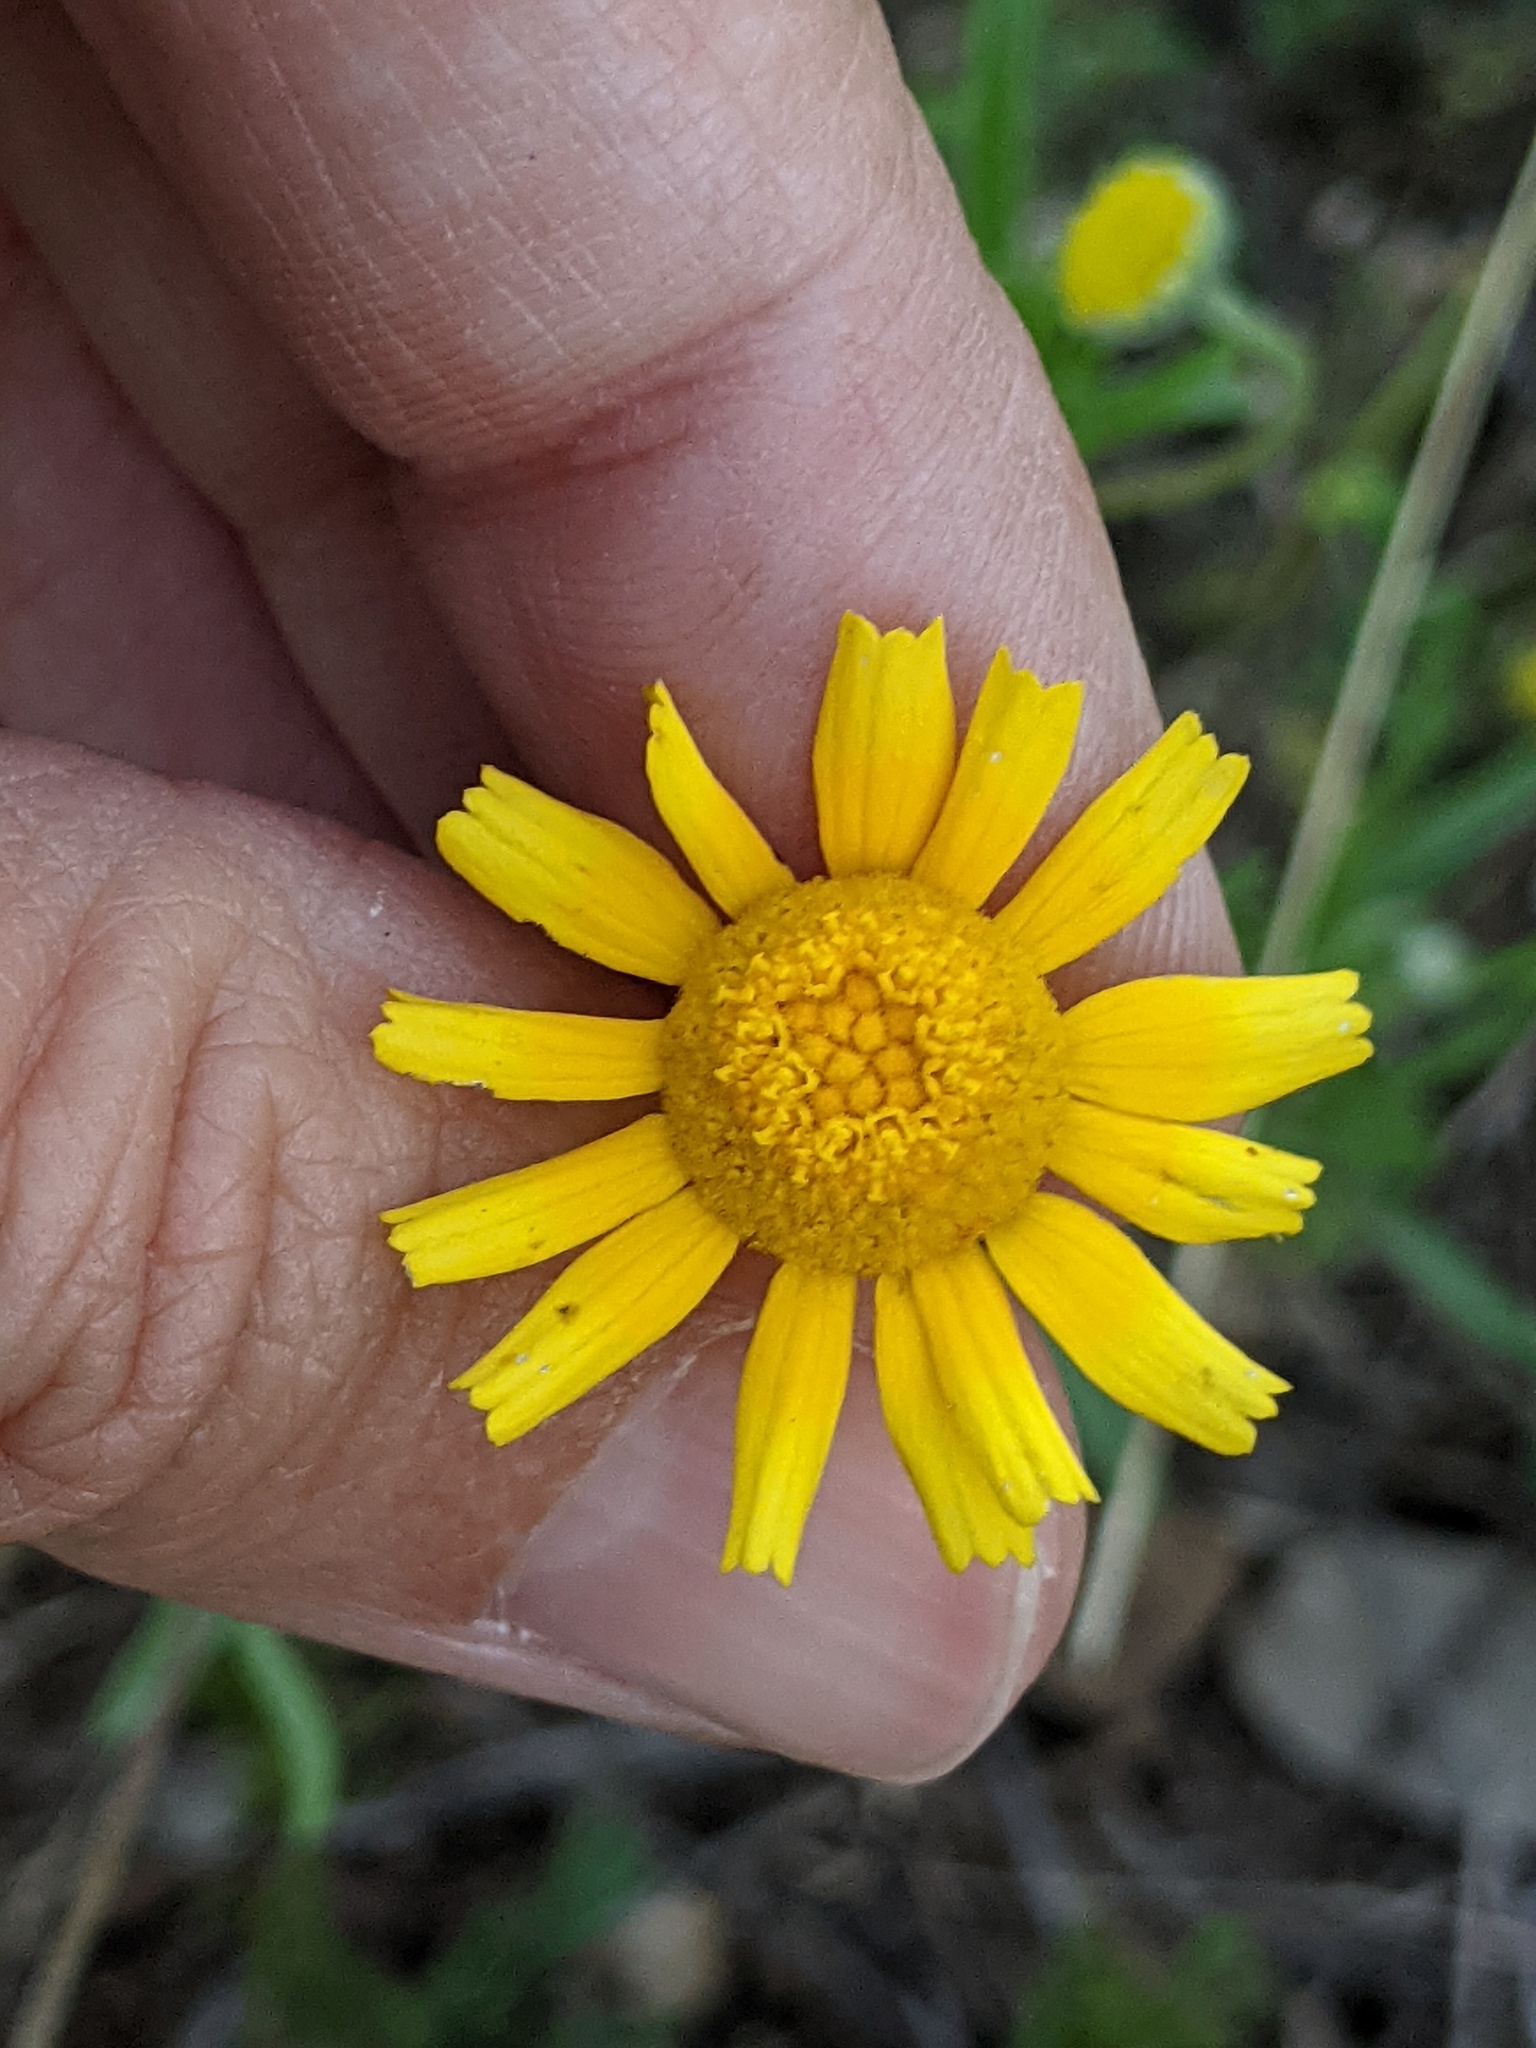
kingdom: Plantae
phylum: Tracheophyta
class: Magnoliopsida
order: Asterales
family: Asteraceae
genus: Tetraneuris
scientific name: Tetraneuris linearifolia
